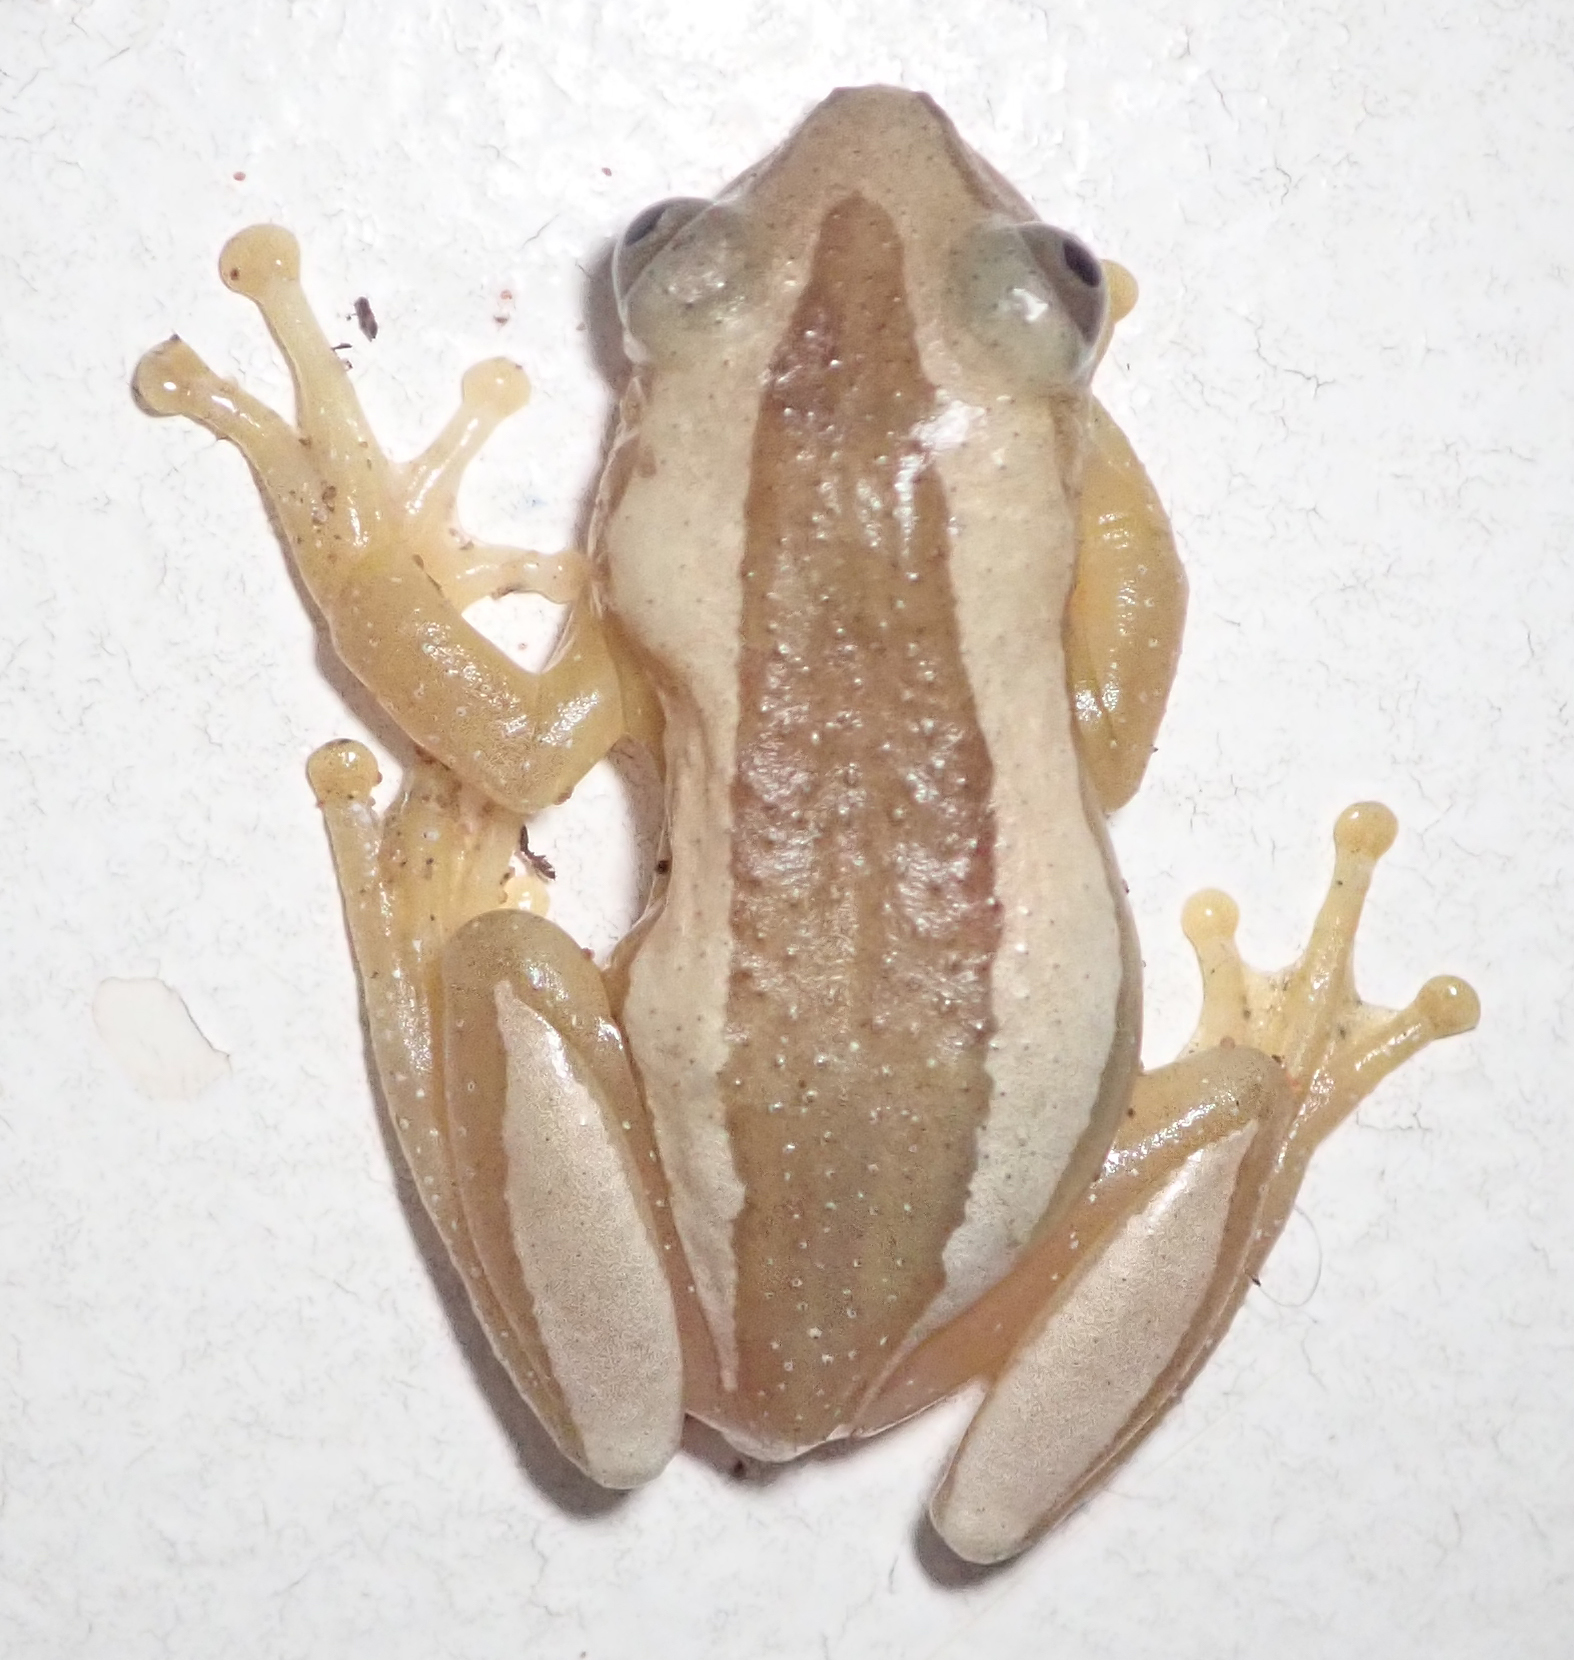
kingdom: Animalia
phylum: Chordata
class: Amphibia
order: Anura
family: Hyperoliidae
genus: Afrixalus
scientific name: Afrixalus fornasini
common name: Fornasini's spiny reed frog
